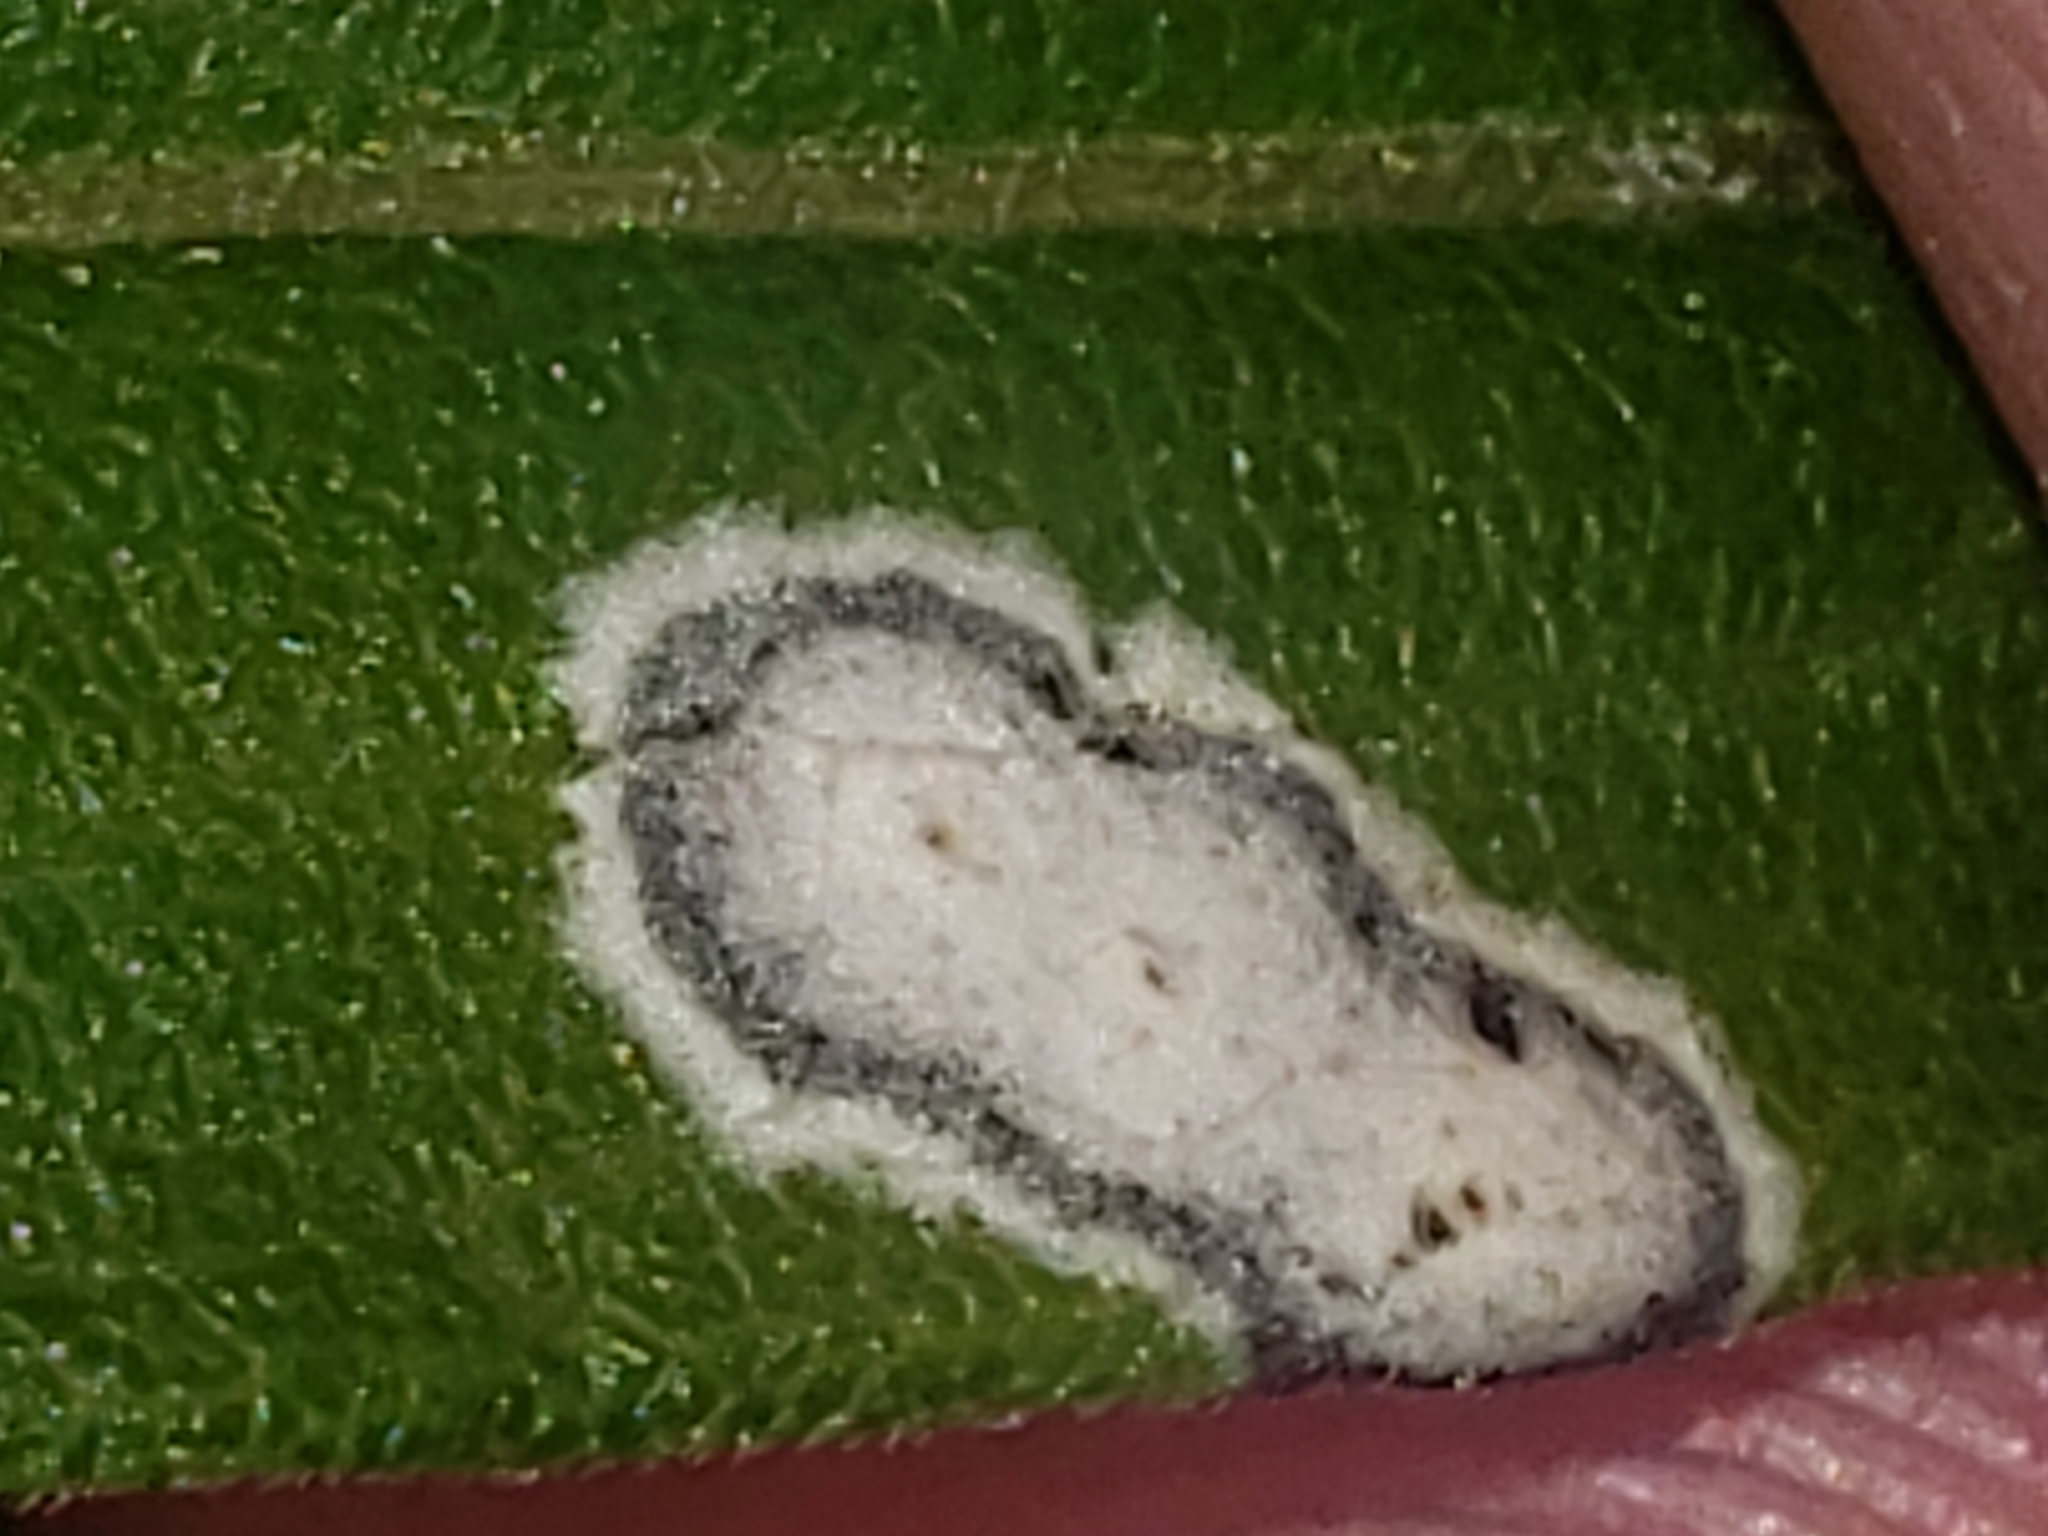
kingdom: Fungi
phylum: Ascomycota
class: Dothideomycetes
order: Botryosphaeriales
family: Botryosphaeriaceae
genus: Botryosphaeria
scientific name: Botryosphaeria dothidea
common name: Asteromyia gall midge fungus
